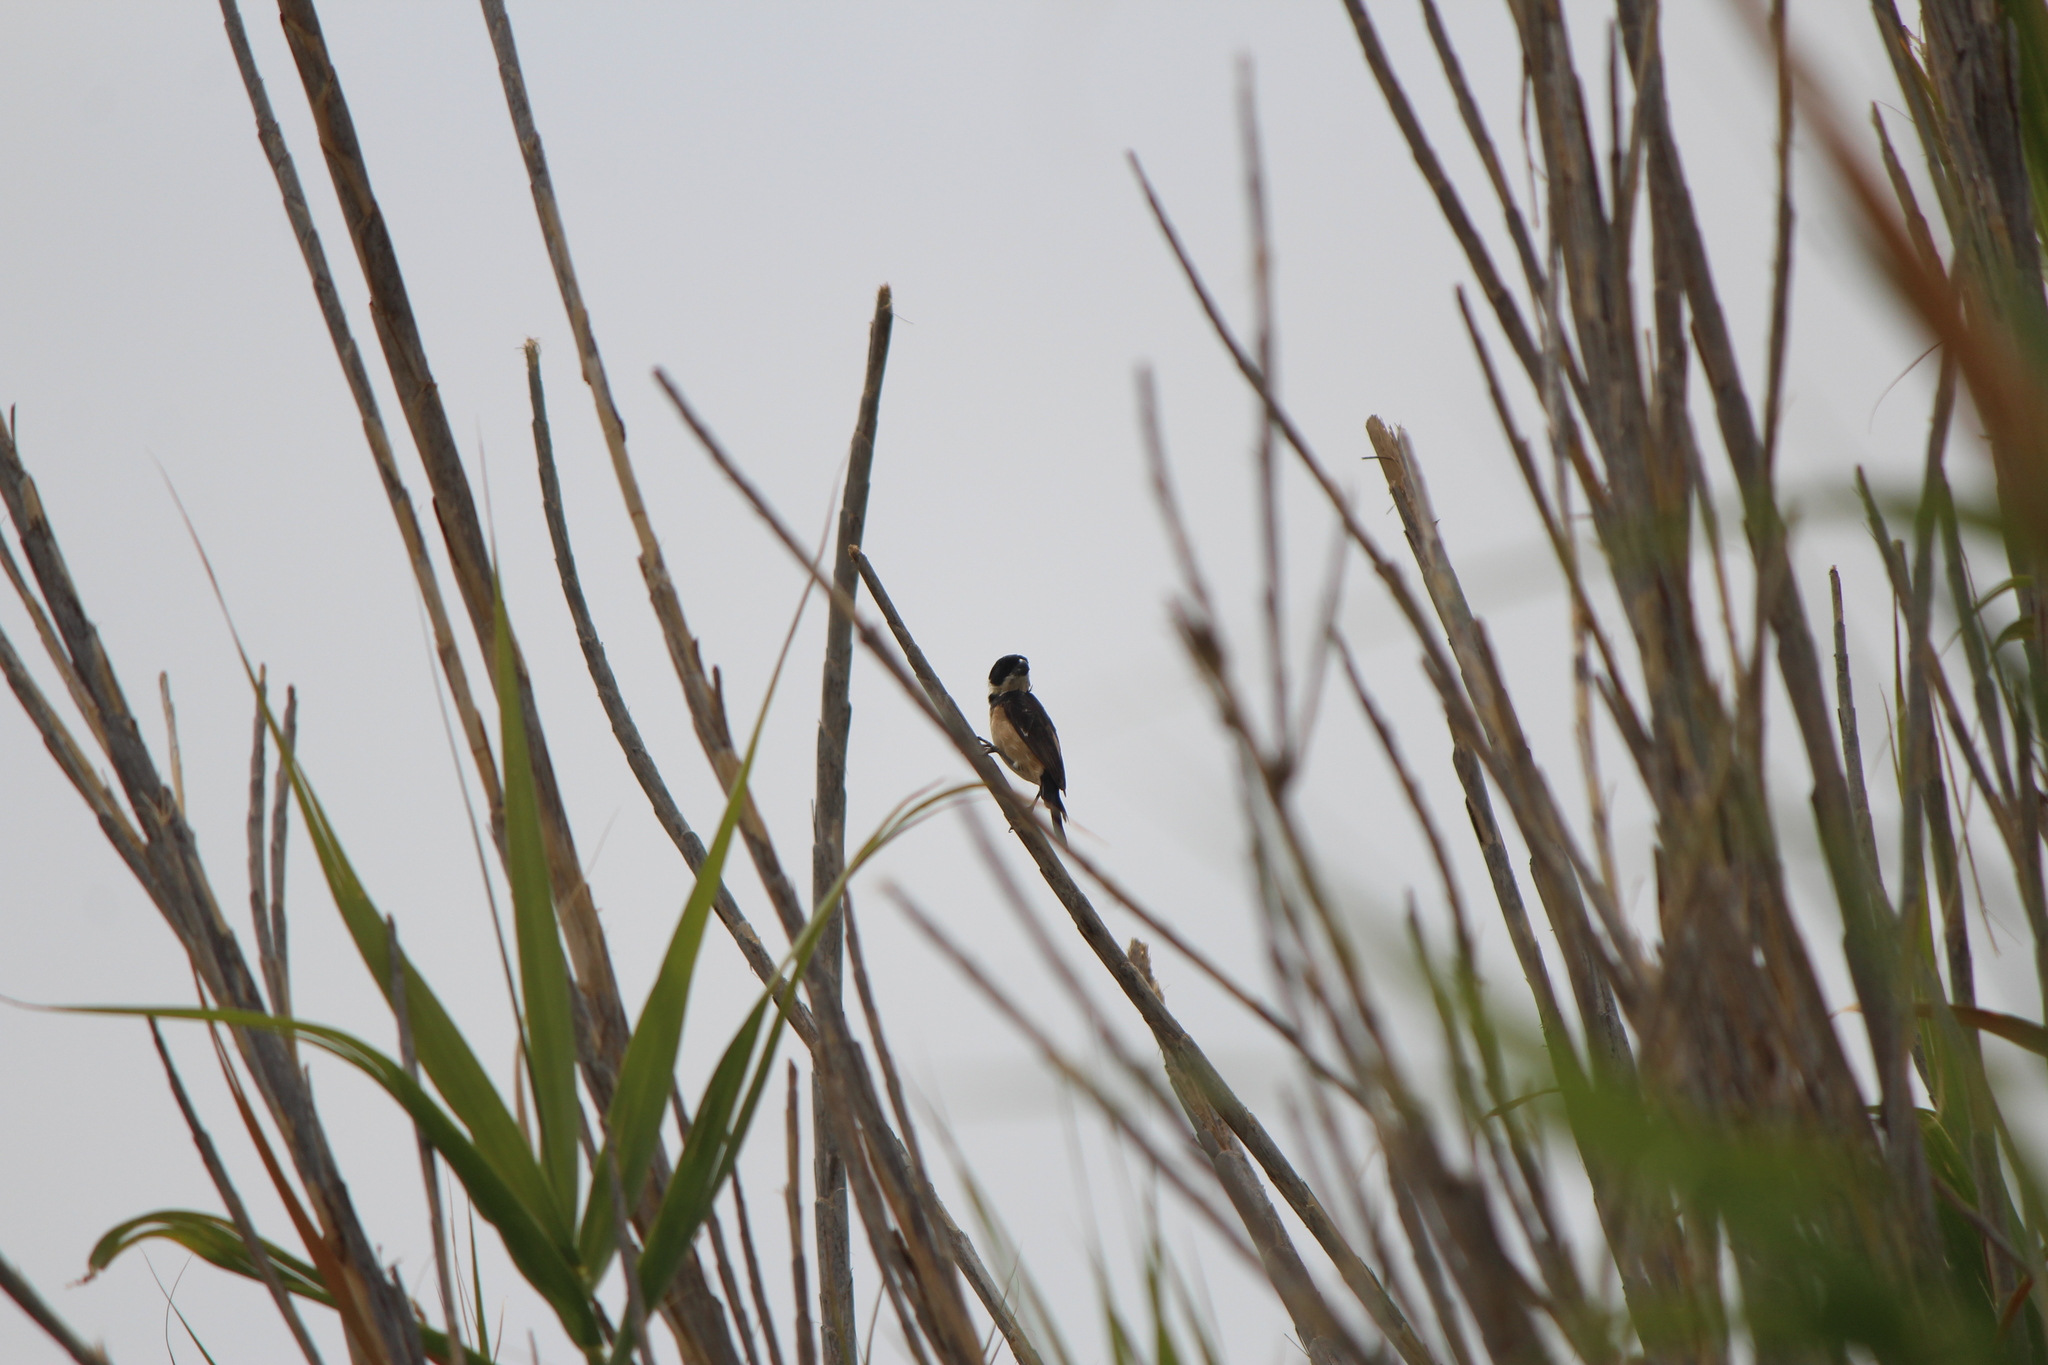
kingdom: Animalia
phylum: Chordata
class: Aves
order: Passeriformes
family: Thraupidae
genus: Sporophila
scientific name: Sporophila torqueola
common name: White-collared seedeater
